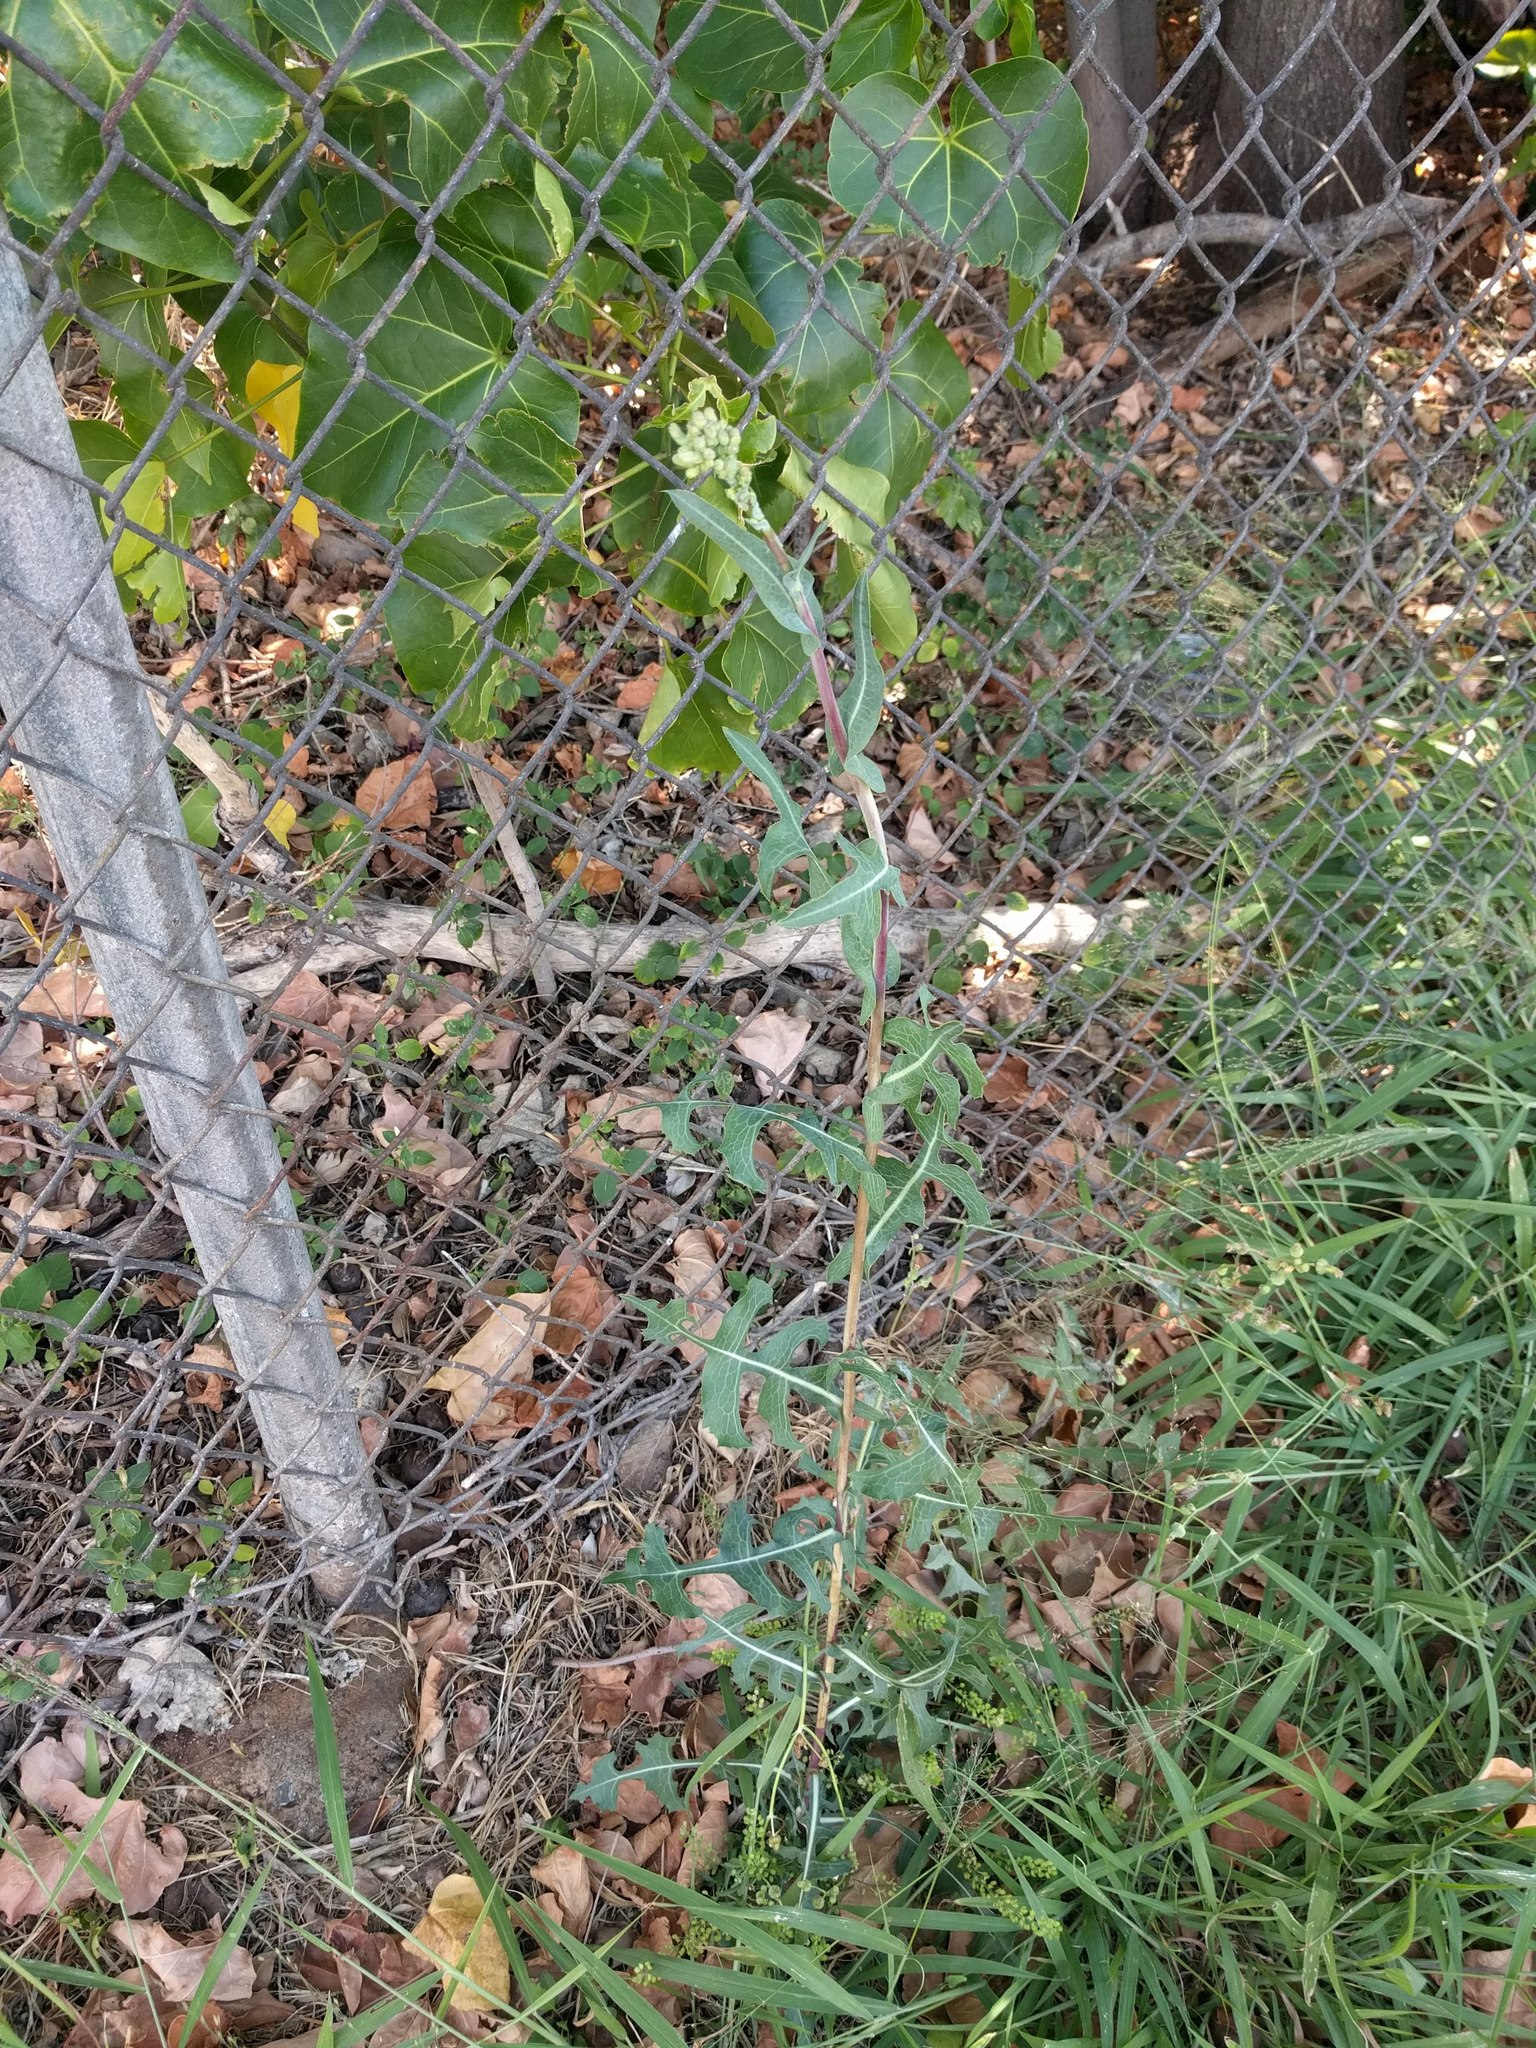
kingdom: Plantae
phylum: Tracheophyta
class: Magnoliopsida
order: Asterales
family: Asteraceae
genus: Lactuca
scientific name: Lactuca serriola
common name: Prickly lettuce
